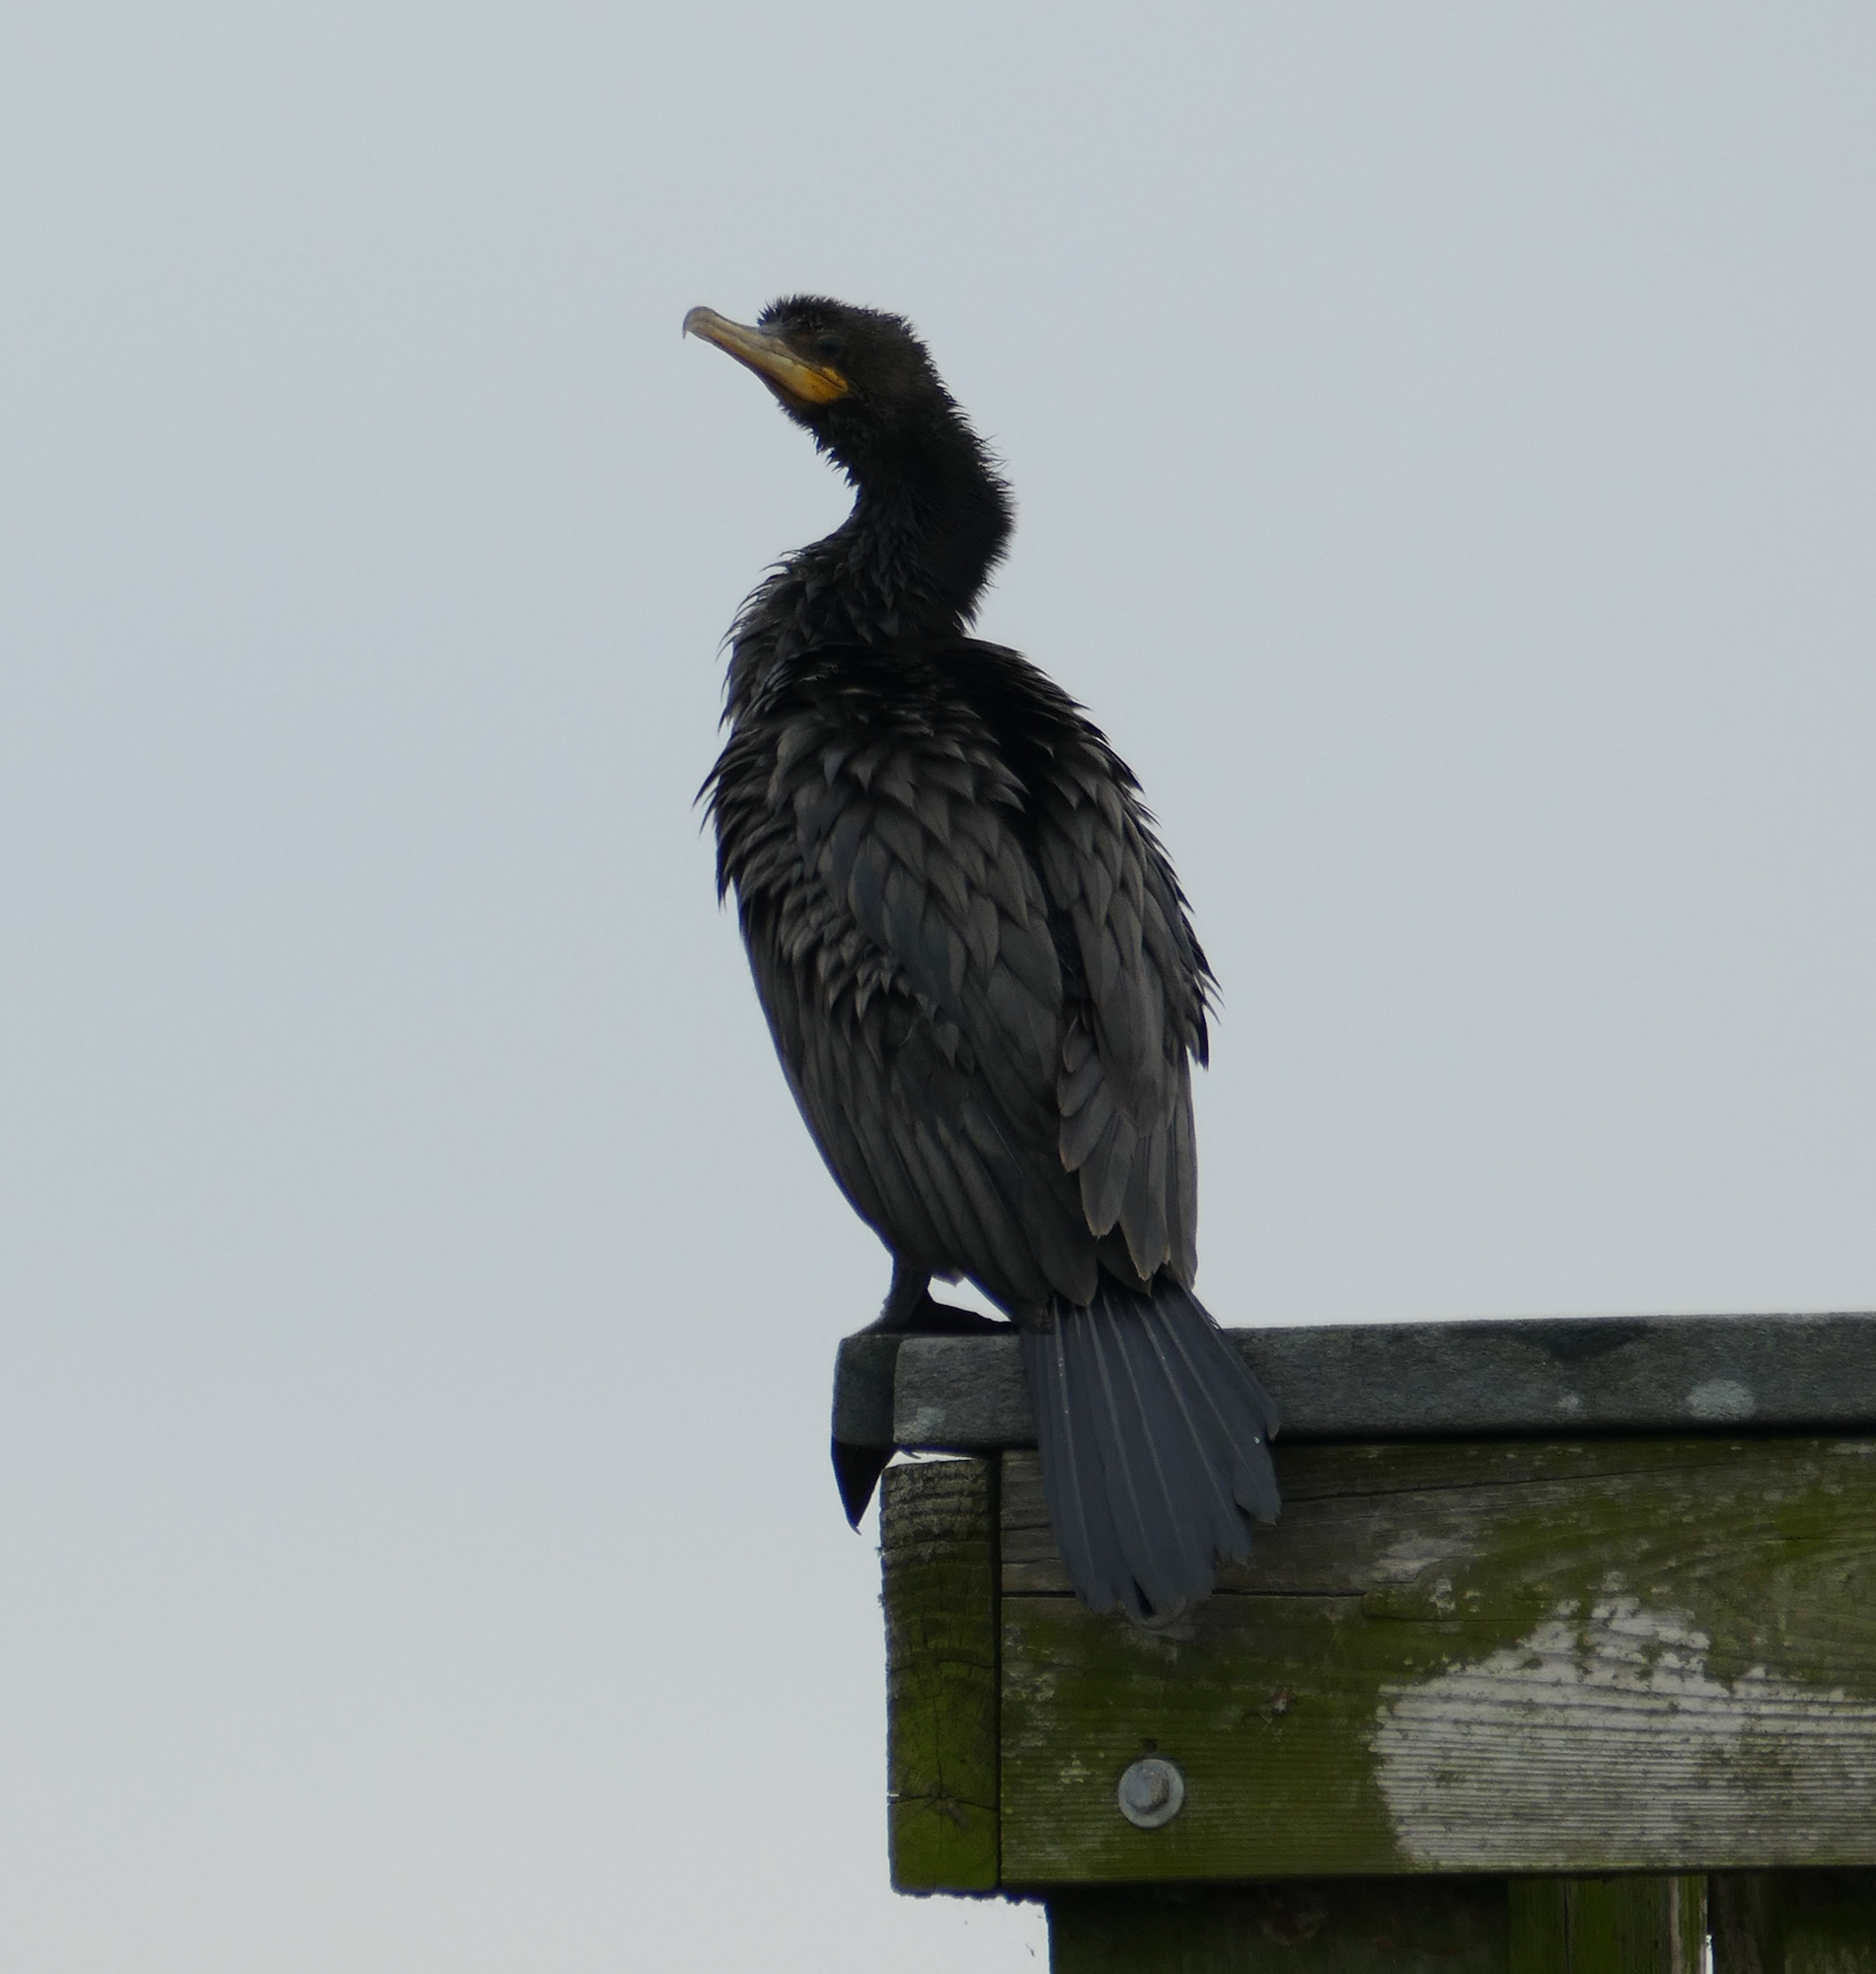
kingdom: Animalia
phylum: Chordata
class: Aves
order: Suliformes
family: Phalacrocoracidae
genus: Phalacrocorax
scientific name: Phalacrocorax auritus
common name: Double-crested cormorant
